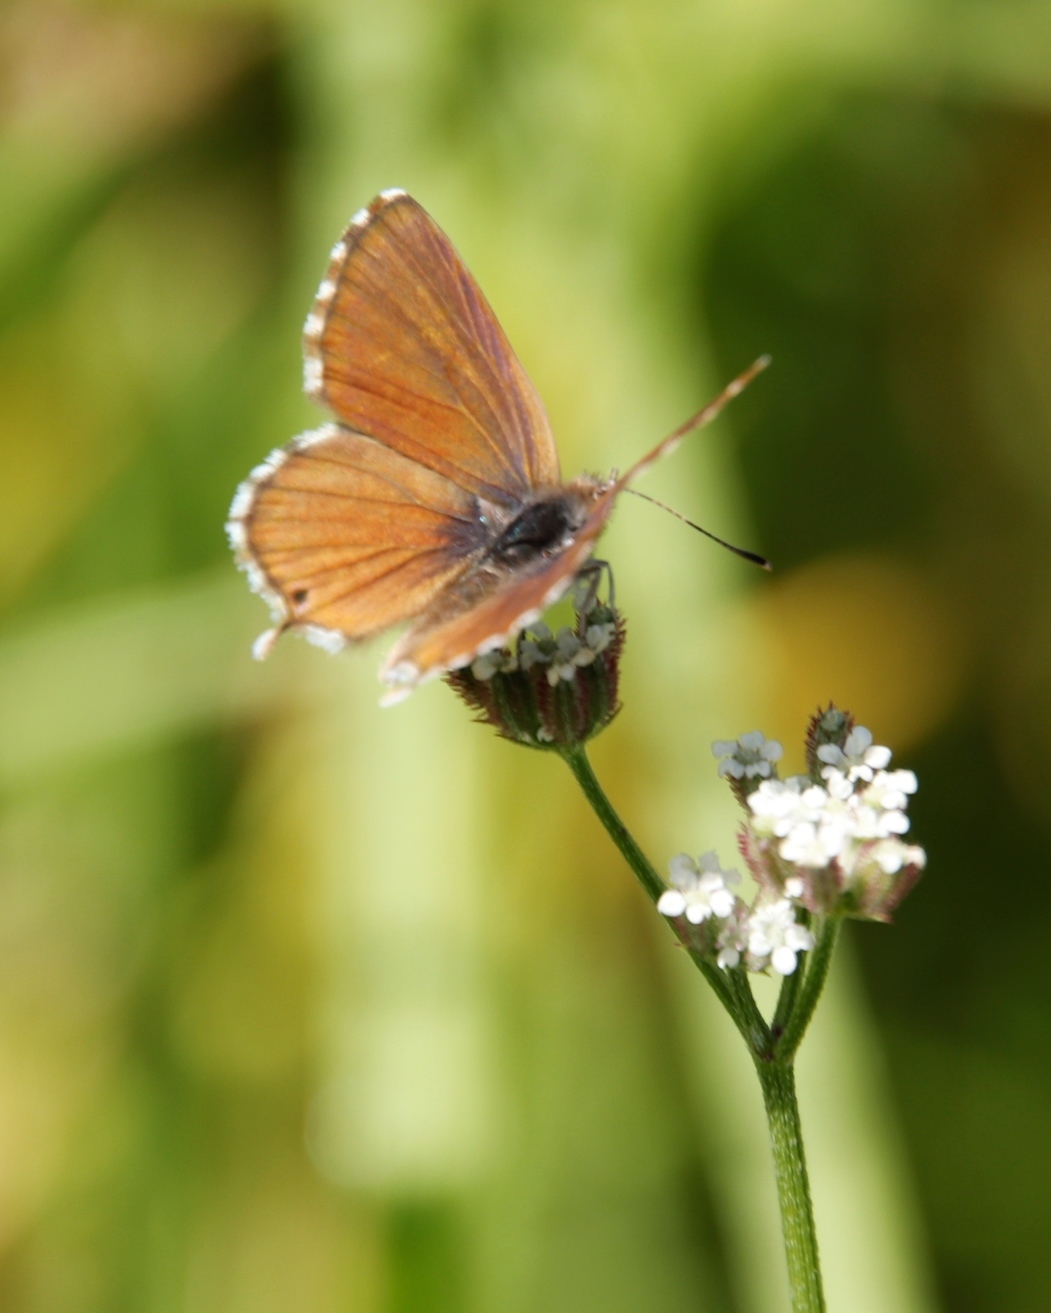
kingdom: Animalia
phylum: Arthropoda
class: Insecta
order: Lepidoptera
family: Lycaenidae
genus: Cacyreus
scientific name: Cacyreus fracta
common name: Water bronze
